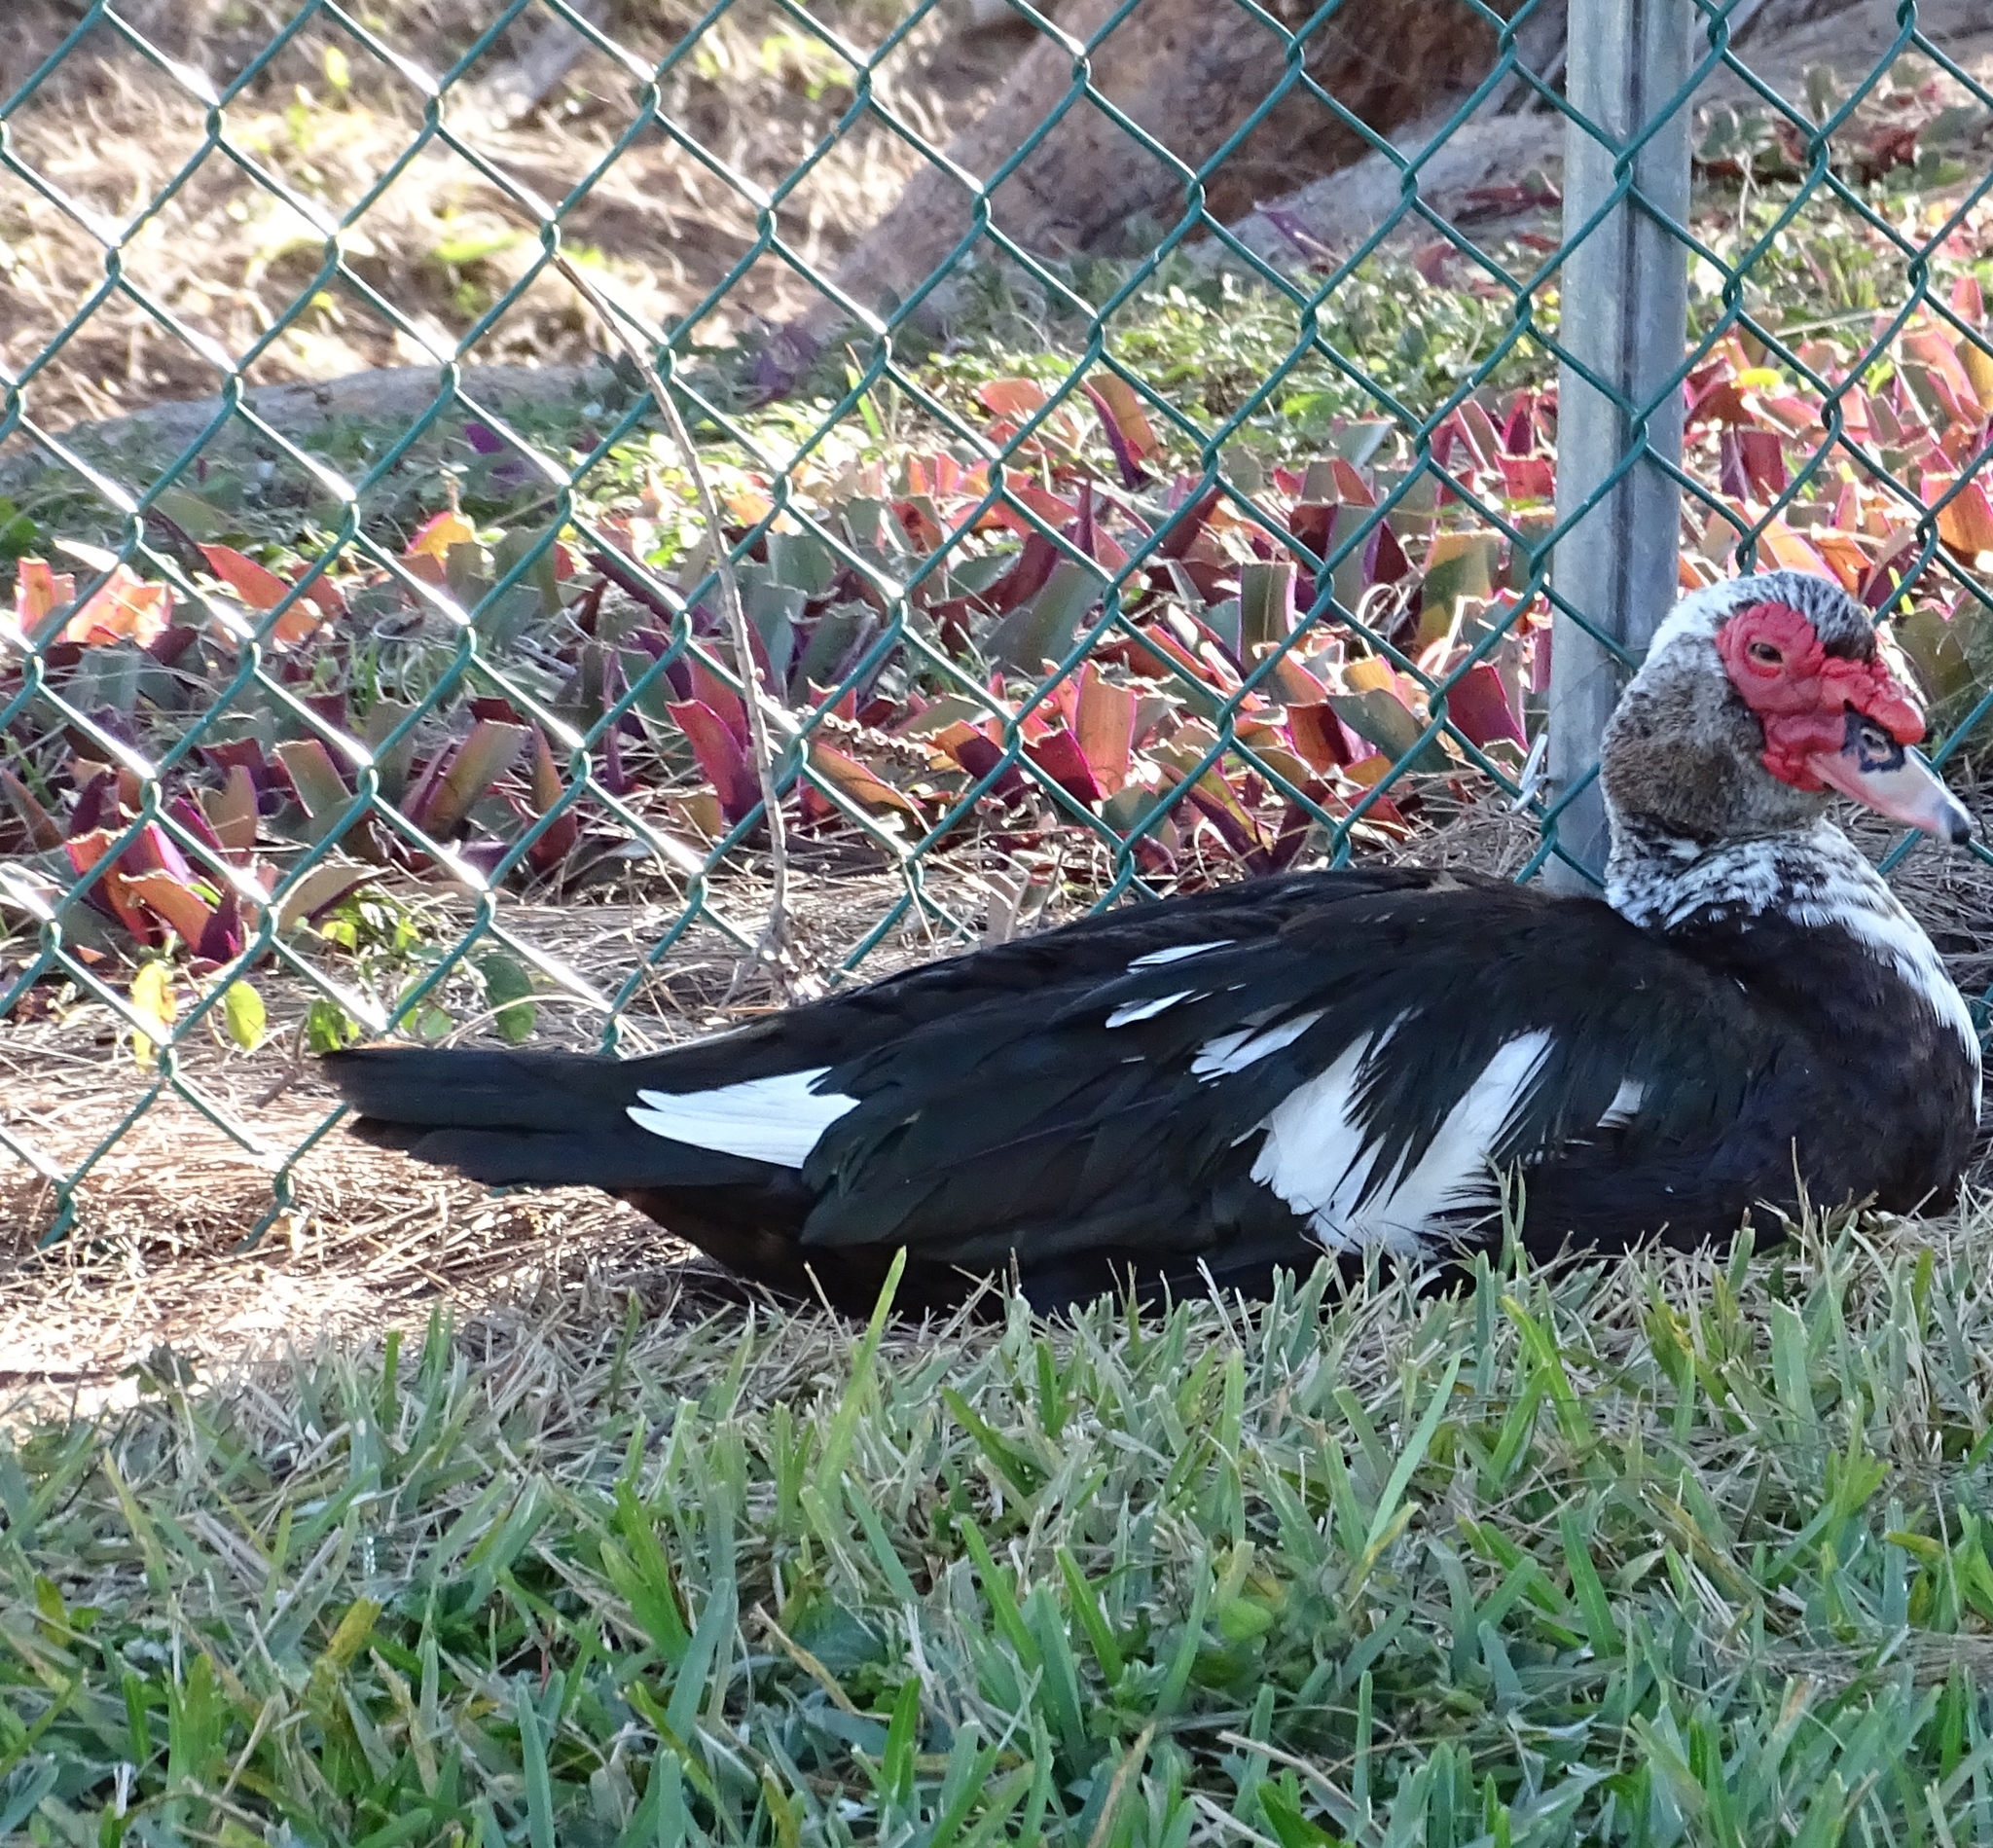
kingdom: Animalia
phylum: Chordata
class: Aves
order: Anseriformes
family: Anatidae
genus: Cairina
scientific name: Cairina moschata
